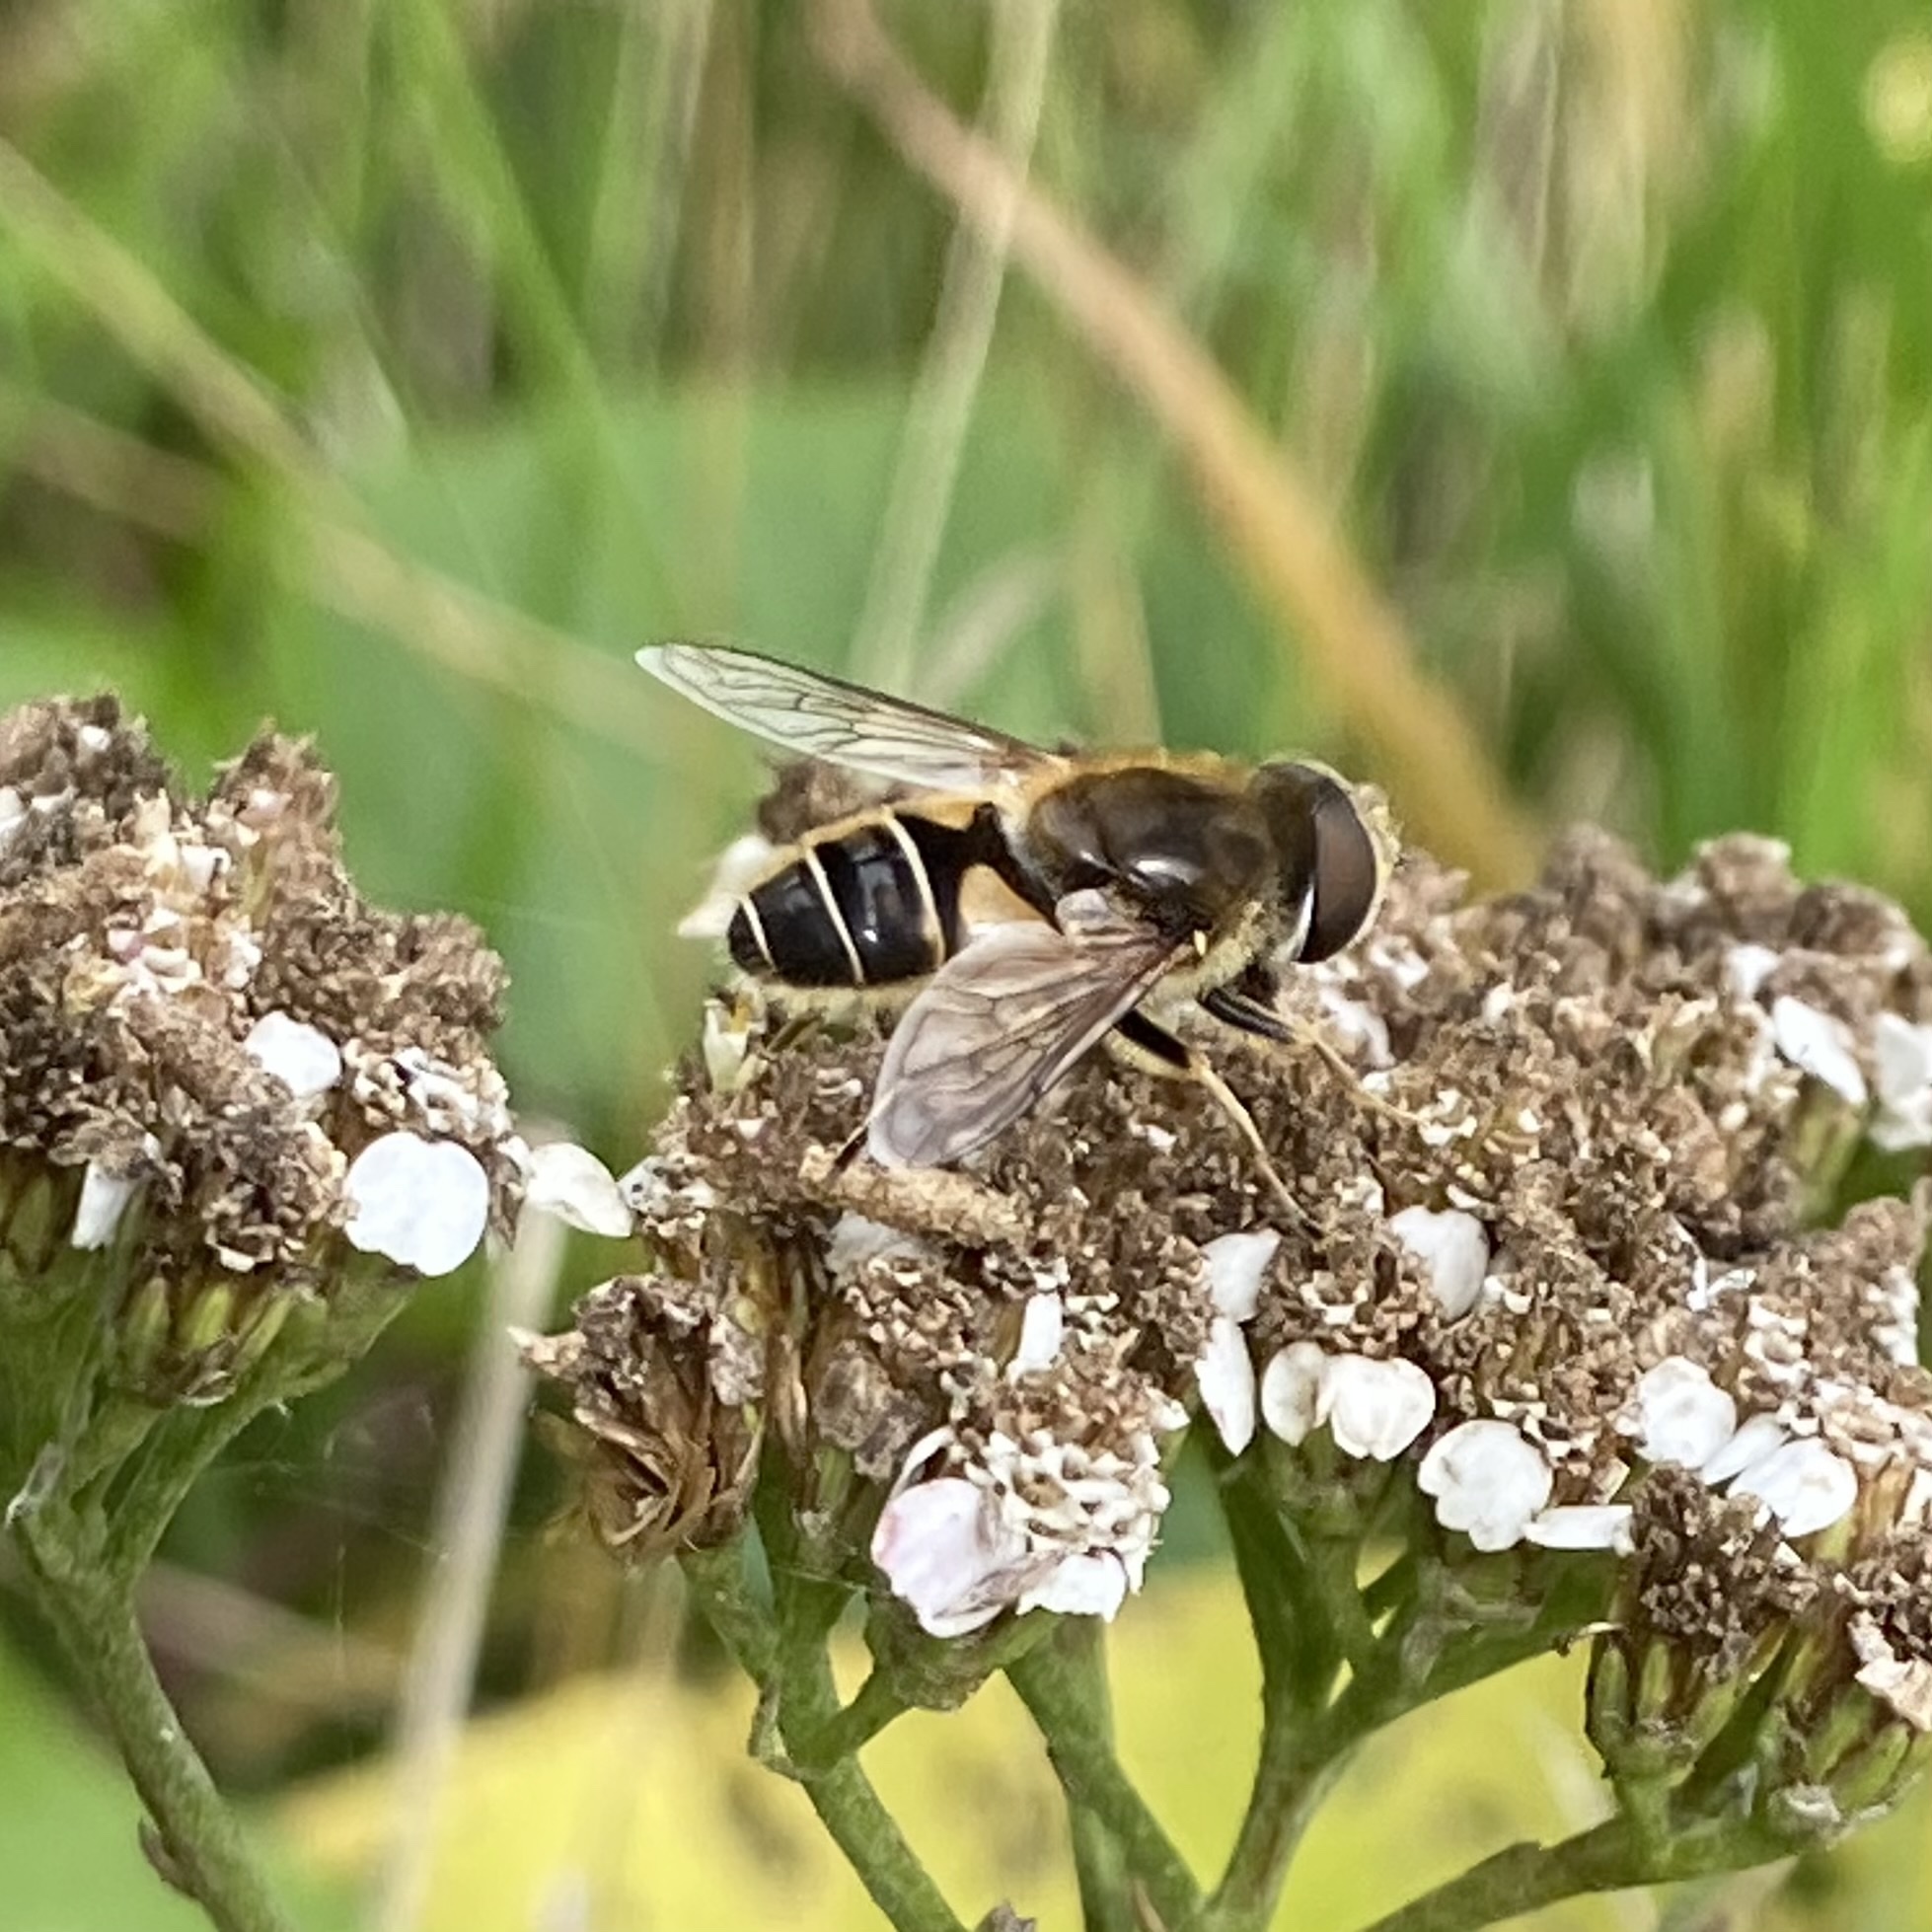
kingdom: Animalia
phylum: Arthropoda
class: Insecta
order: Diptera
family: Syrphidae
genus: Eristalis
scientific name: Eristalis nemorum
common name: Orange-spined drone fly
